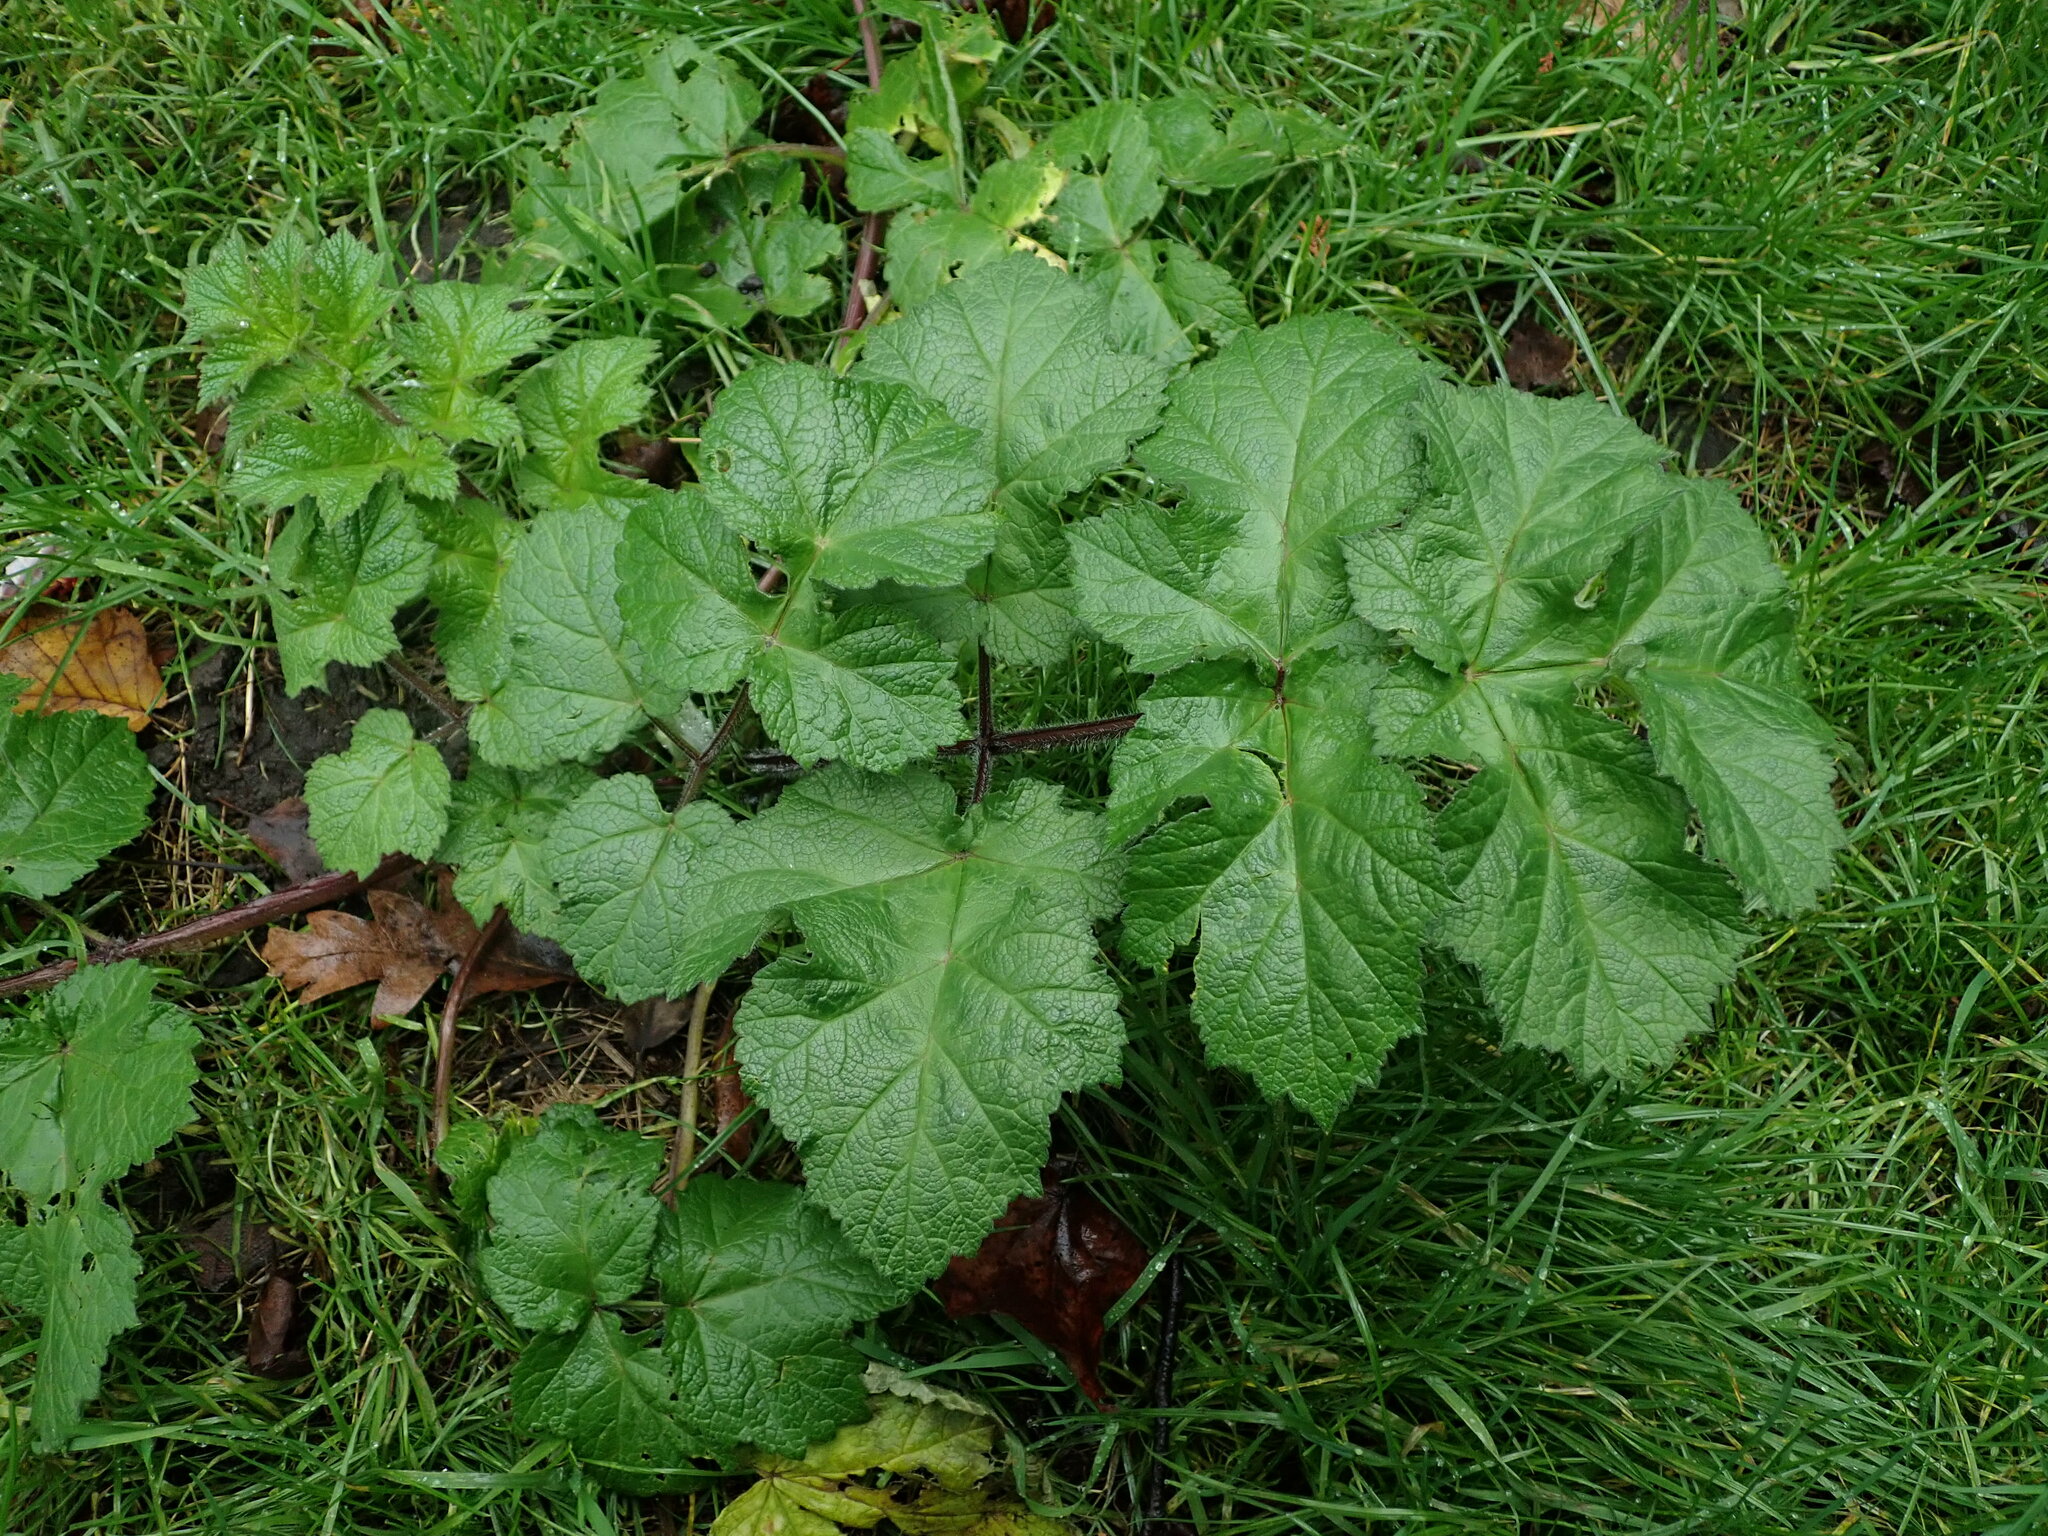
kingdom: Plantae
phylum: Tracheophyta
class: Magnoliopsida
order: Apiales
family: Apiaceae
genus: Heracleum
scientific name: Heracleum sphondylium
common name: Hogweed
